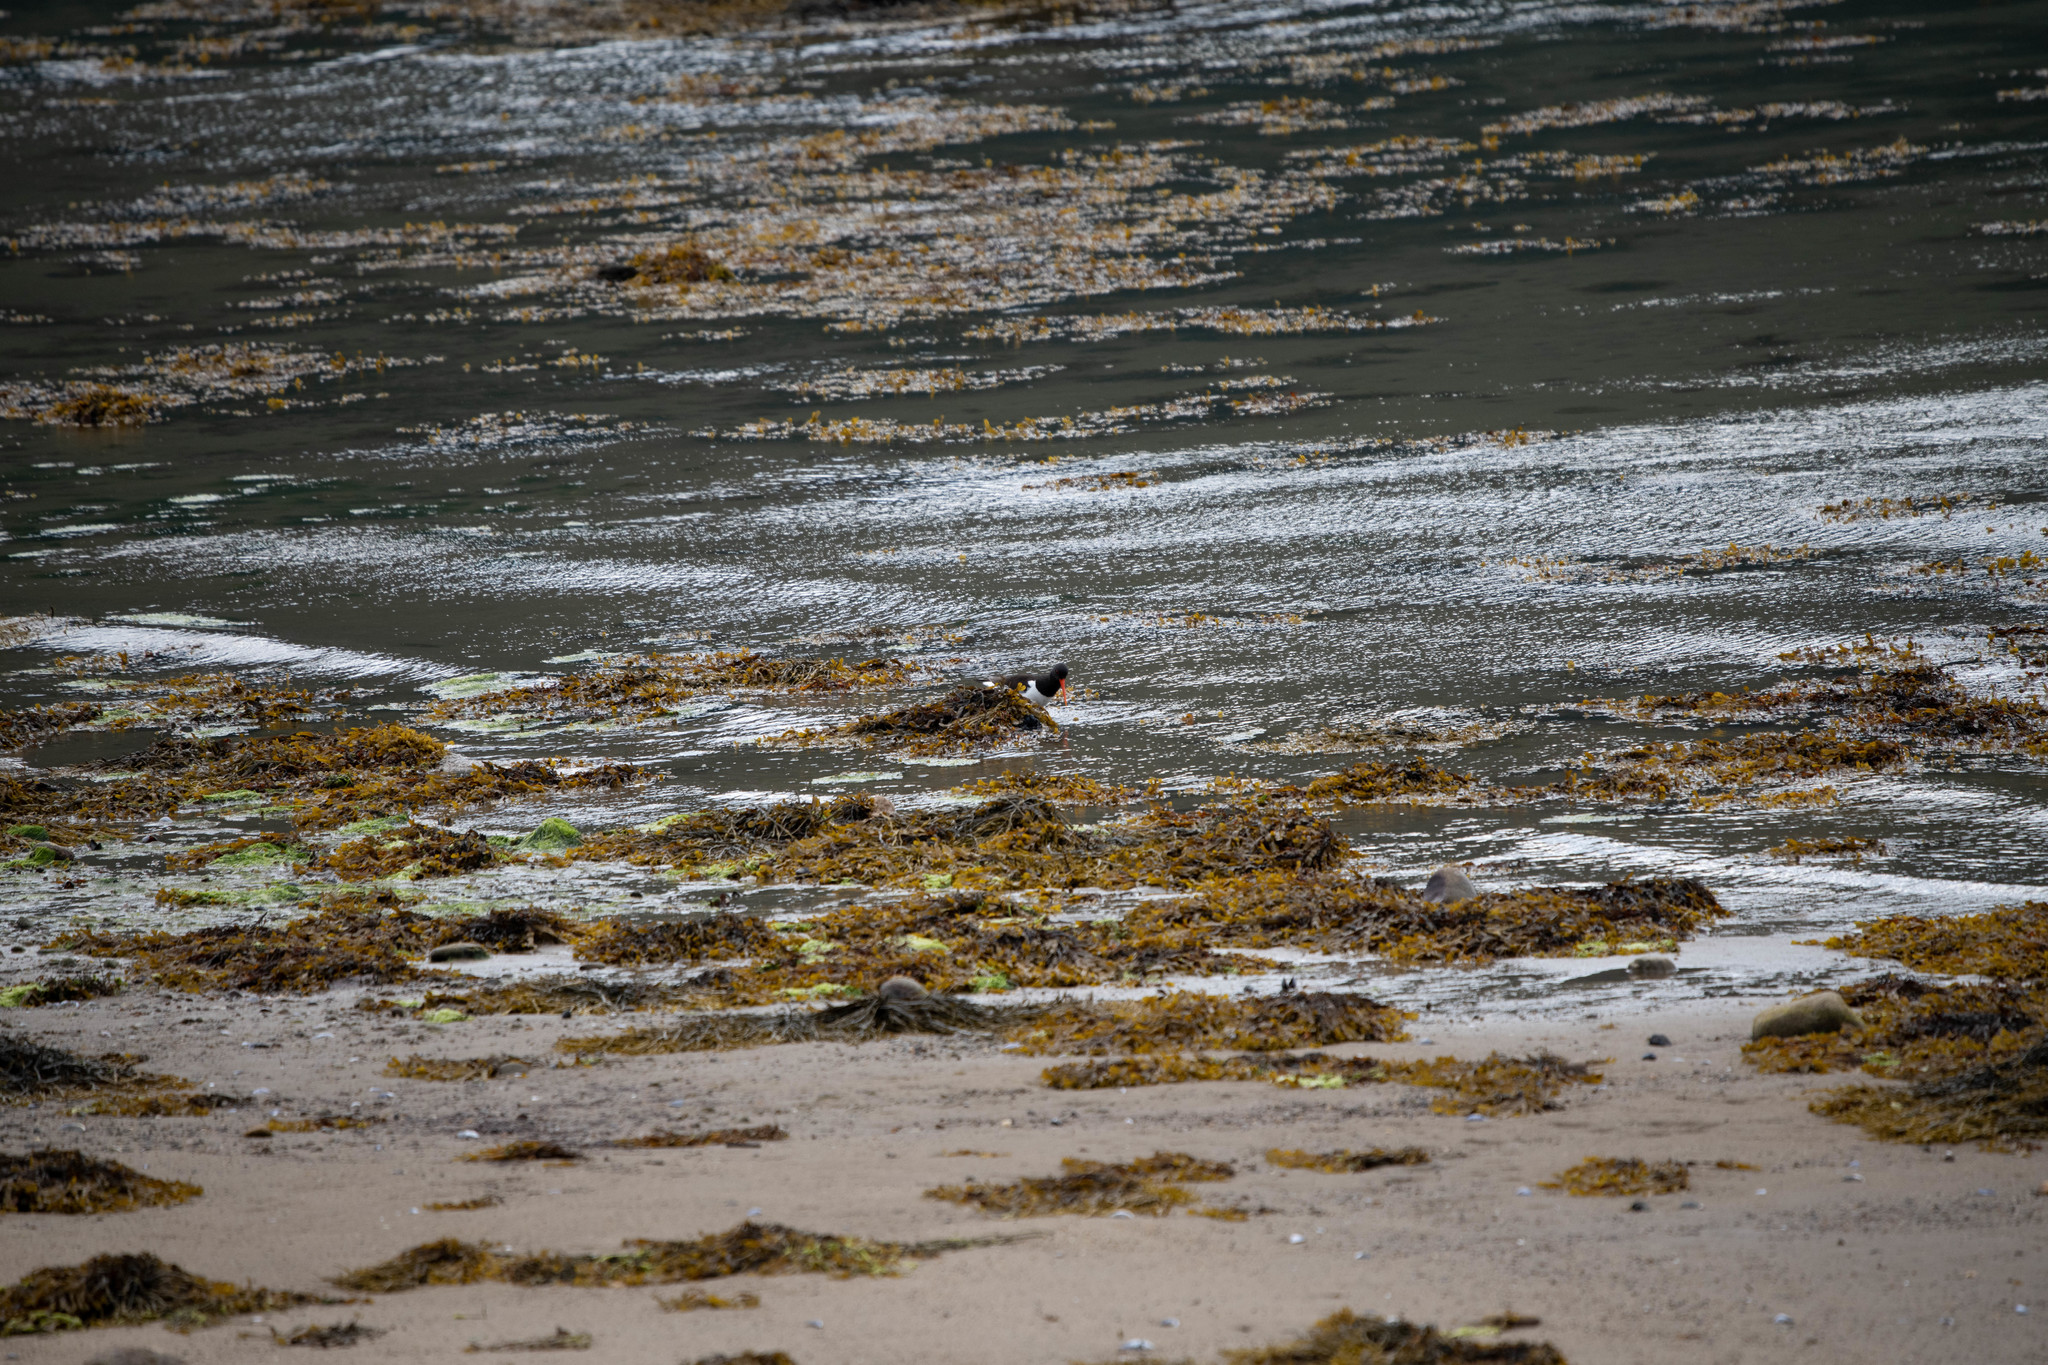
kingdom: Animalia
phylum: Chordata
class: Aves
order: Charadriiformes
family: Haematopodidae
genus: Haematopus
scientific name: Haematopus ostralegus
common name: Eurasian oystercatcher
